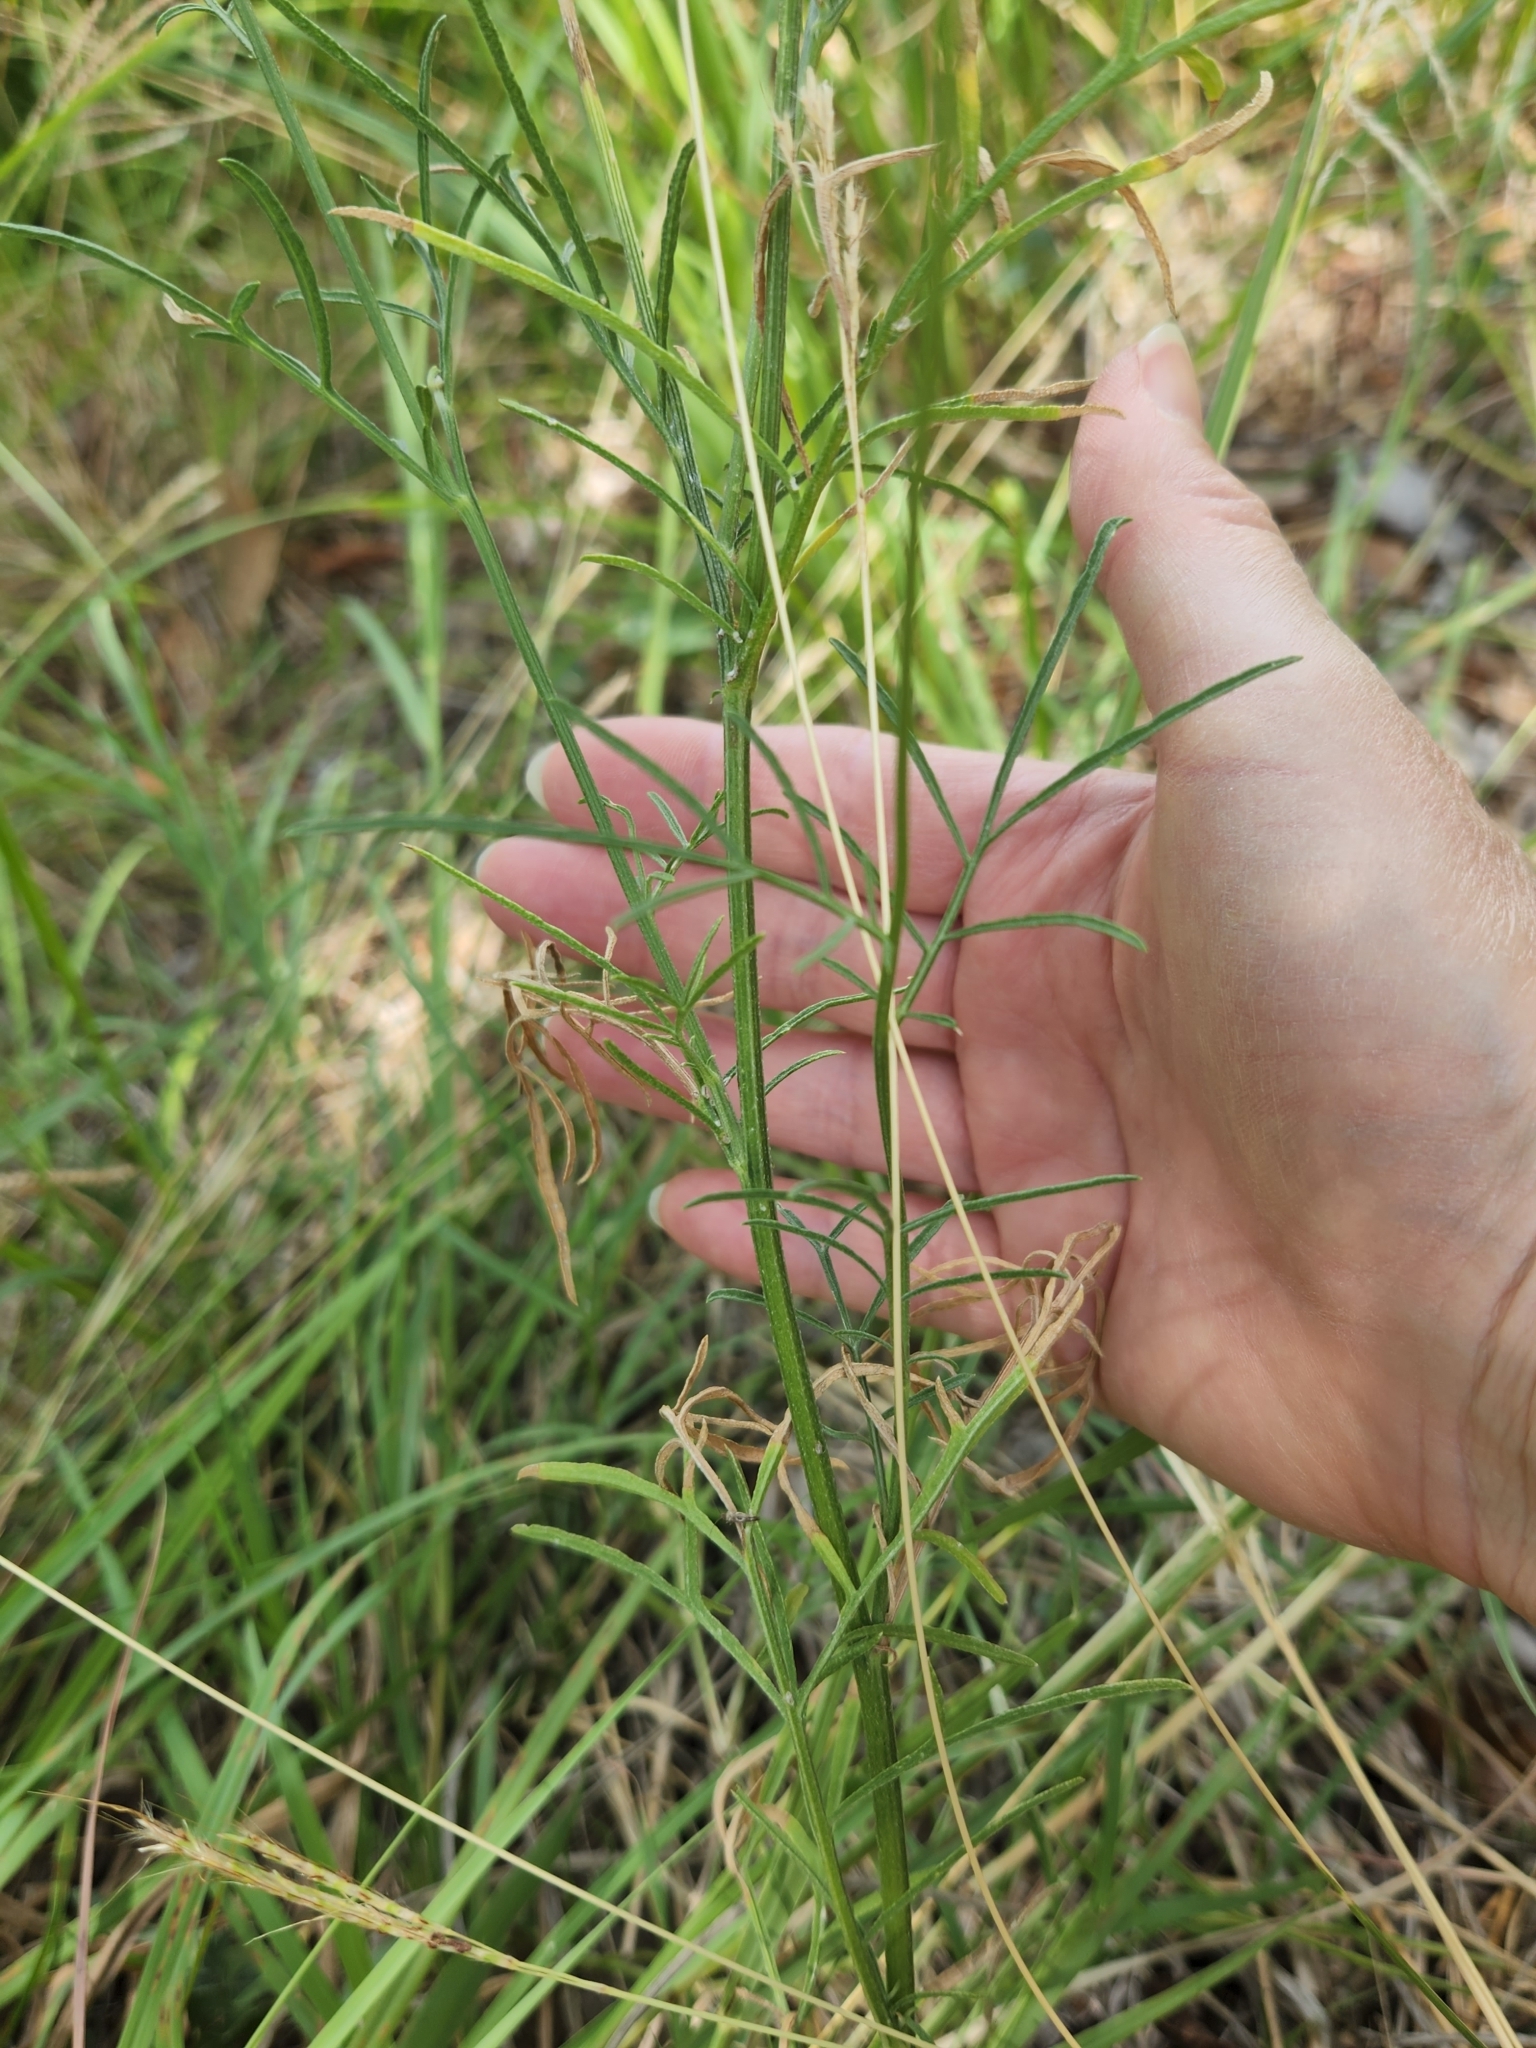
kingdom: Plantae
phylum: Tracheophyta
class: Magnoliopsida
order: Asterales
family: Asteraceae
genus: Ratibida
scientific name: Ratibida columnifera
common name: Prairie coneflower
